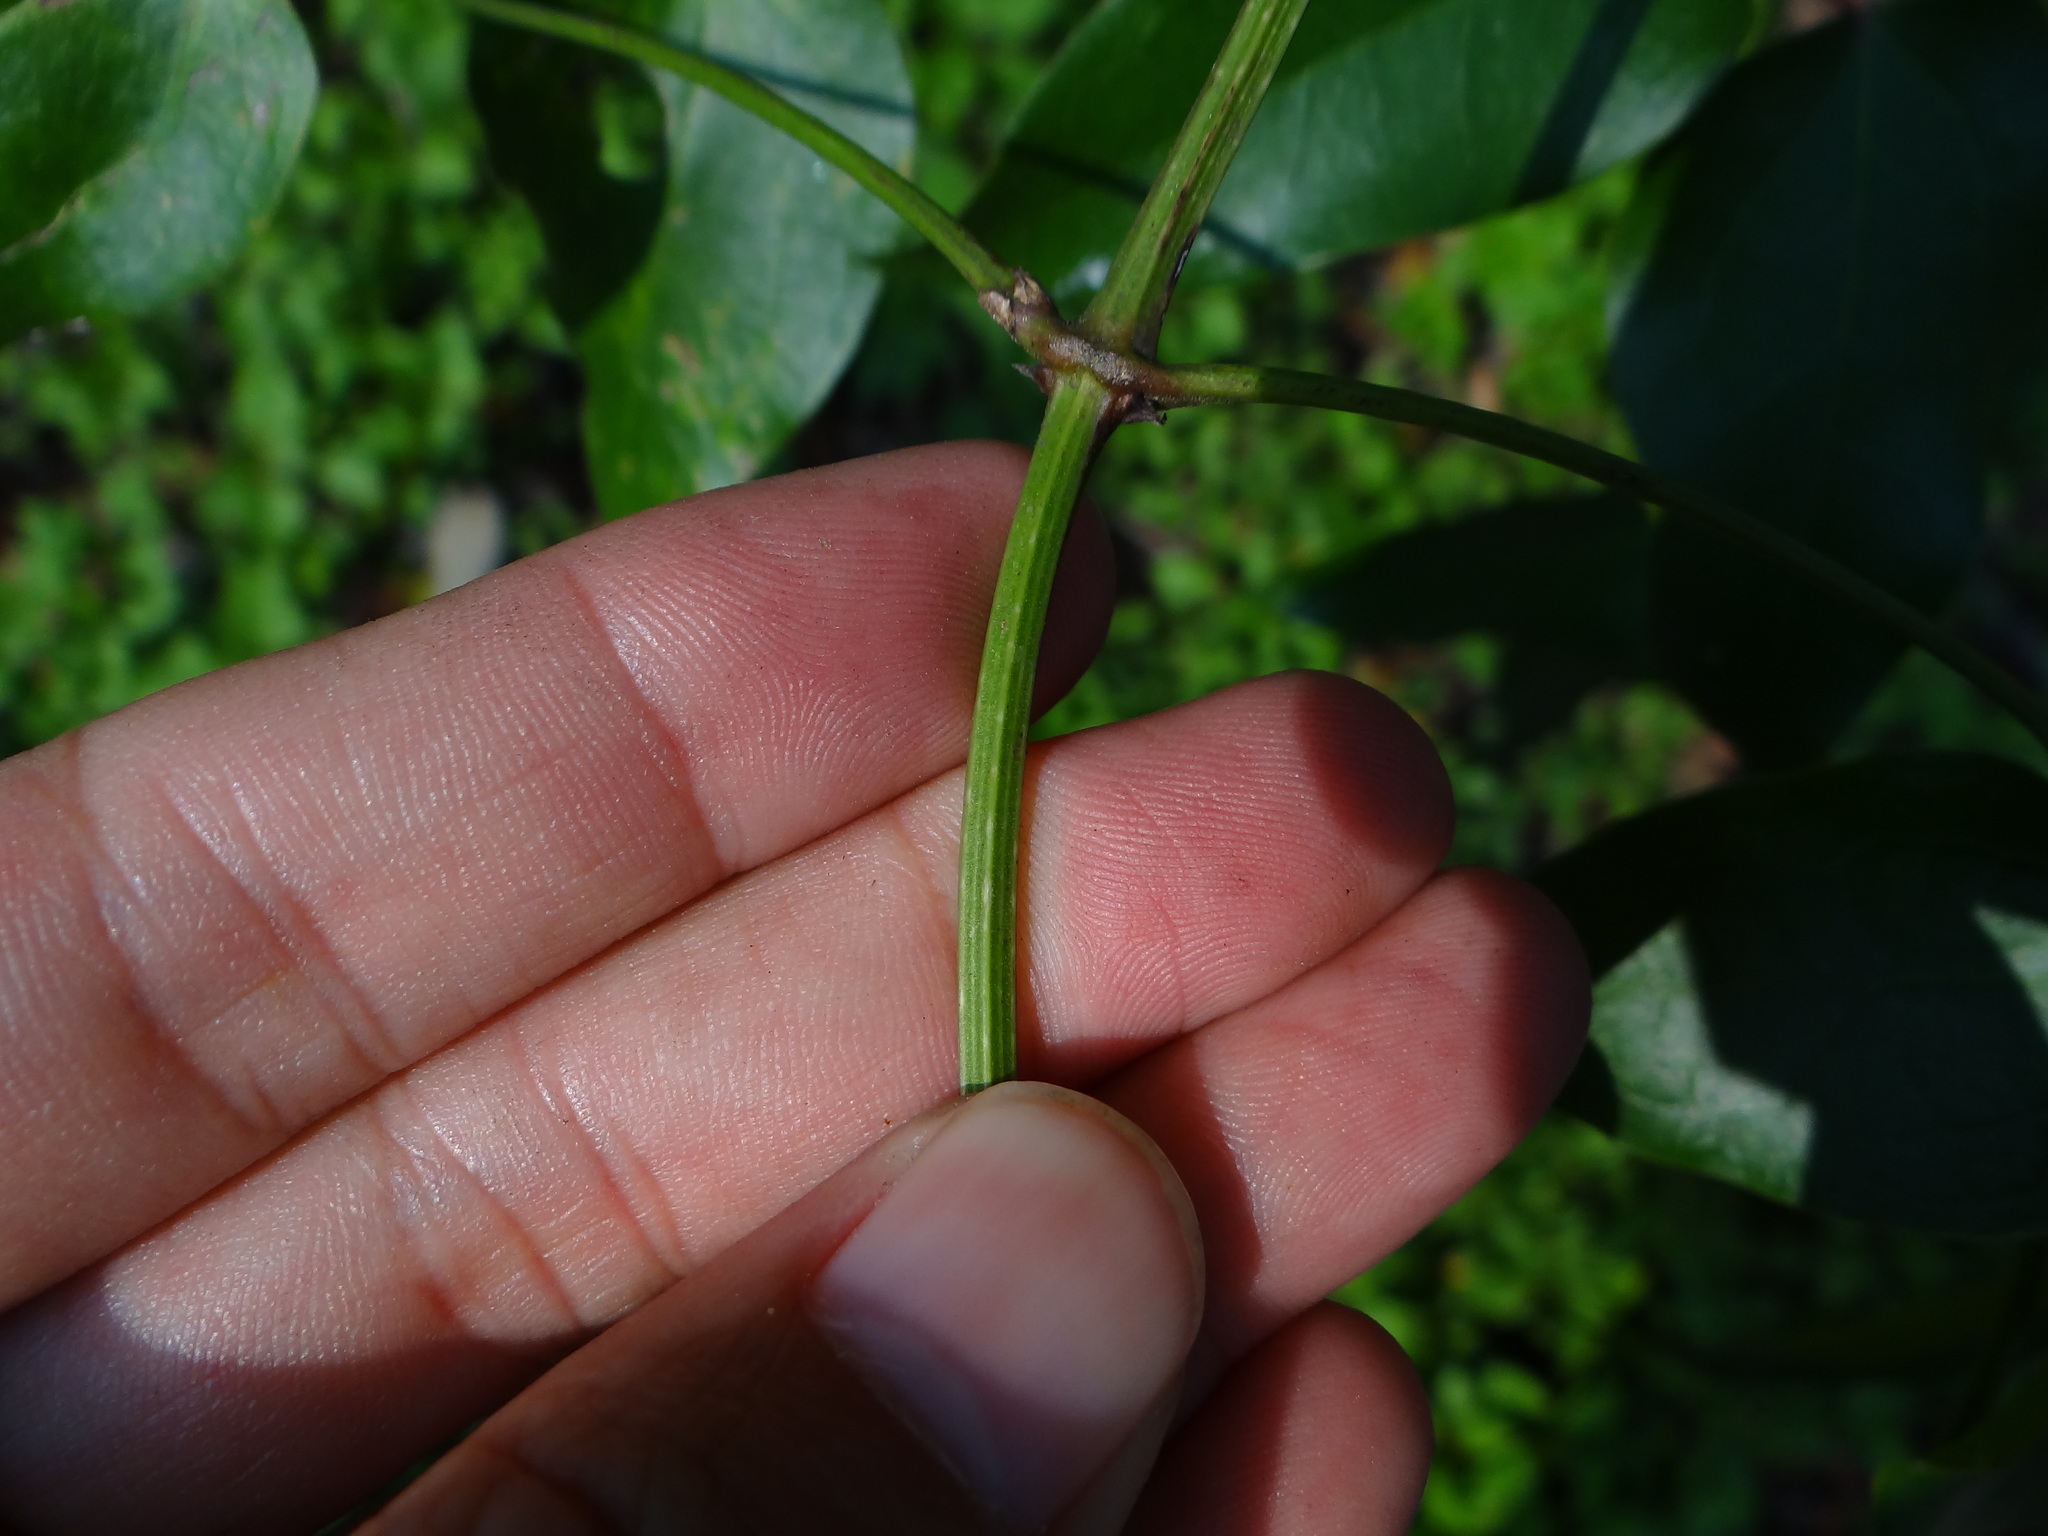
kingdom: Plantae
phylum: Tracheophyta
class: Magnoliopsida
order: Ranunculales
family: Ranunculaceae
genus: Clematis
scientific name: Clematis meyeniana
